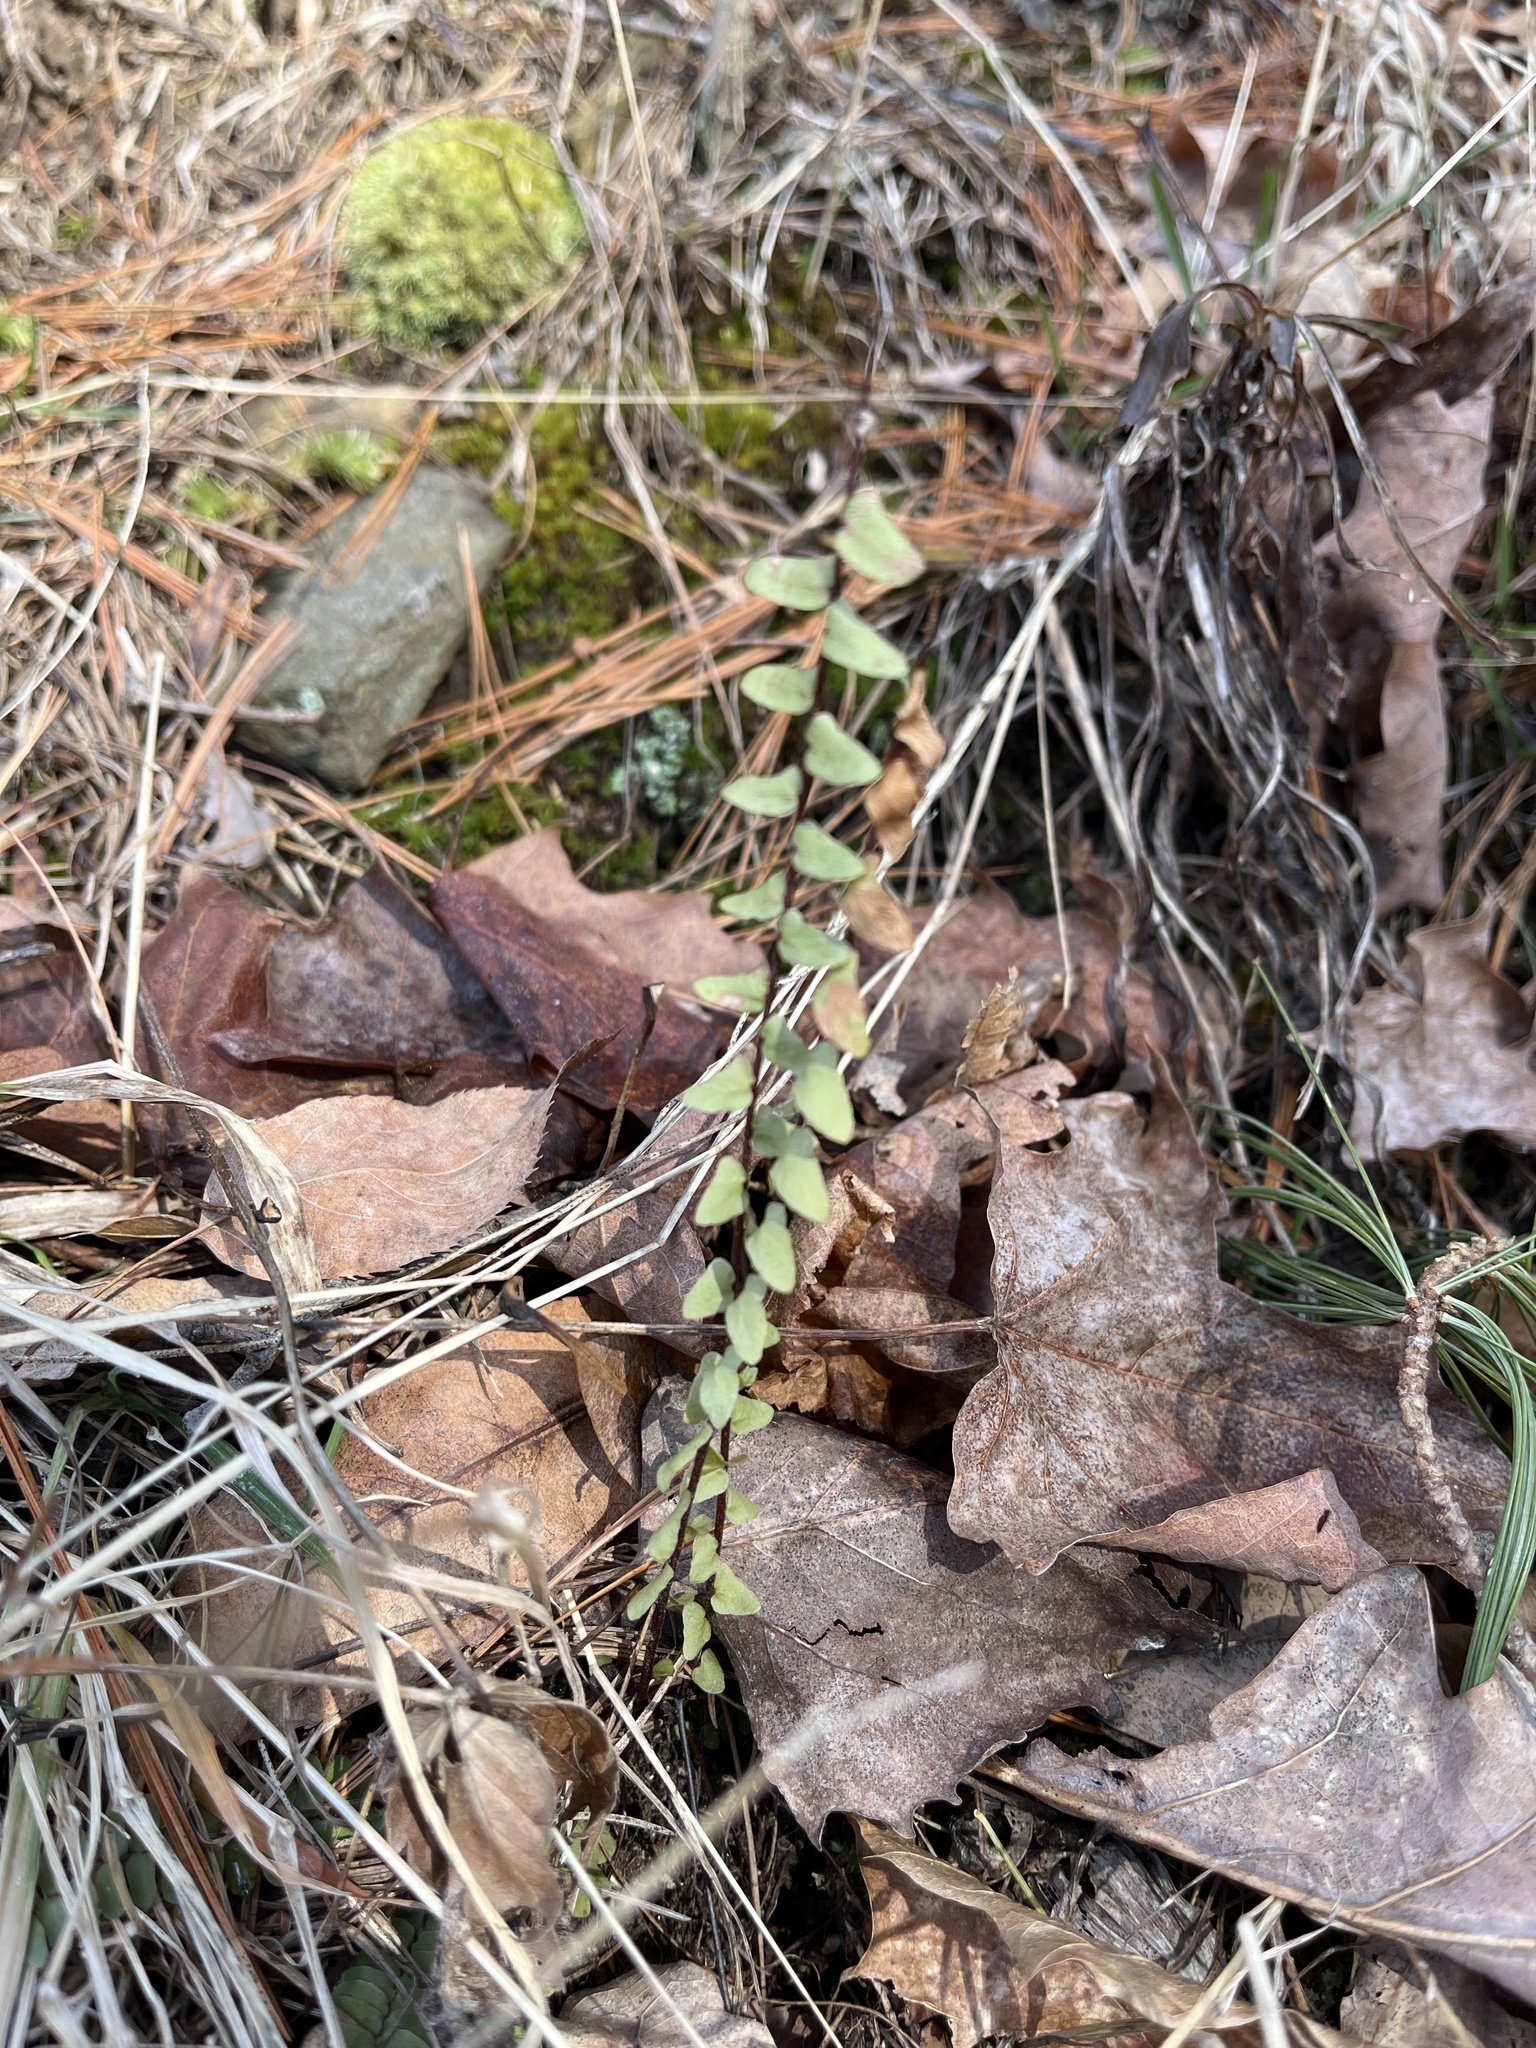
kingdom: Plantae
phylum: Tracheophyta
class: Polypodiopsida
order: Polypodiales
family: Aspleniaceae
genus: Asplenium
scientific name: Asplenium platyneuron
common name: Ebony spleenwort
